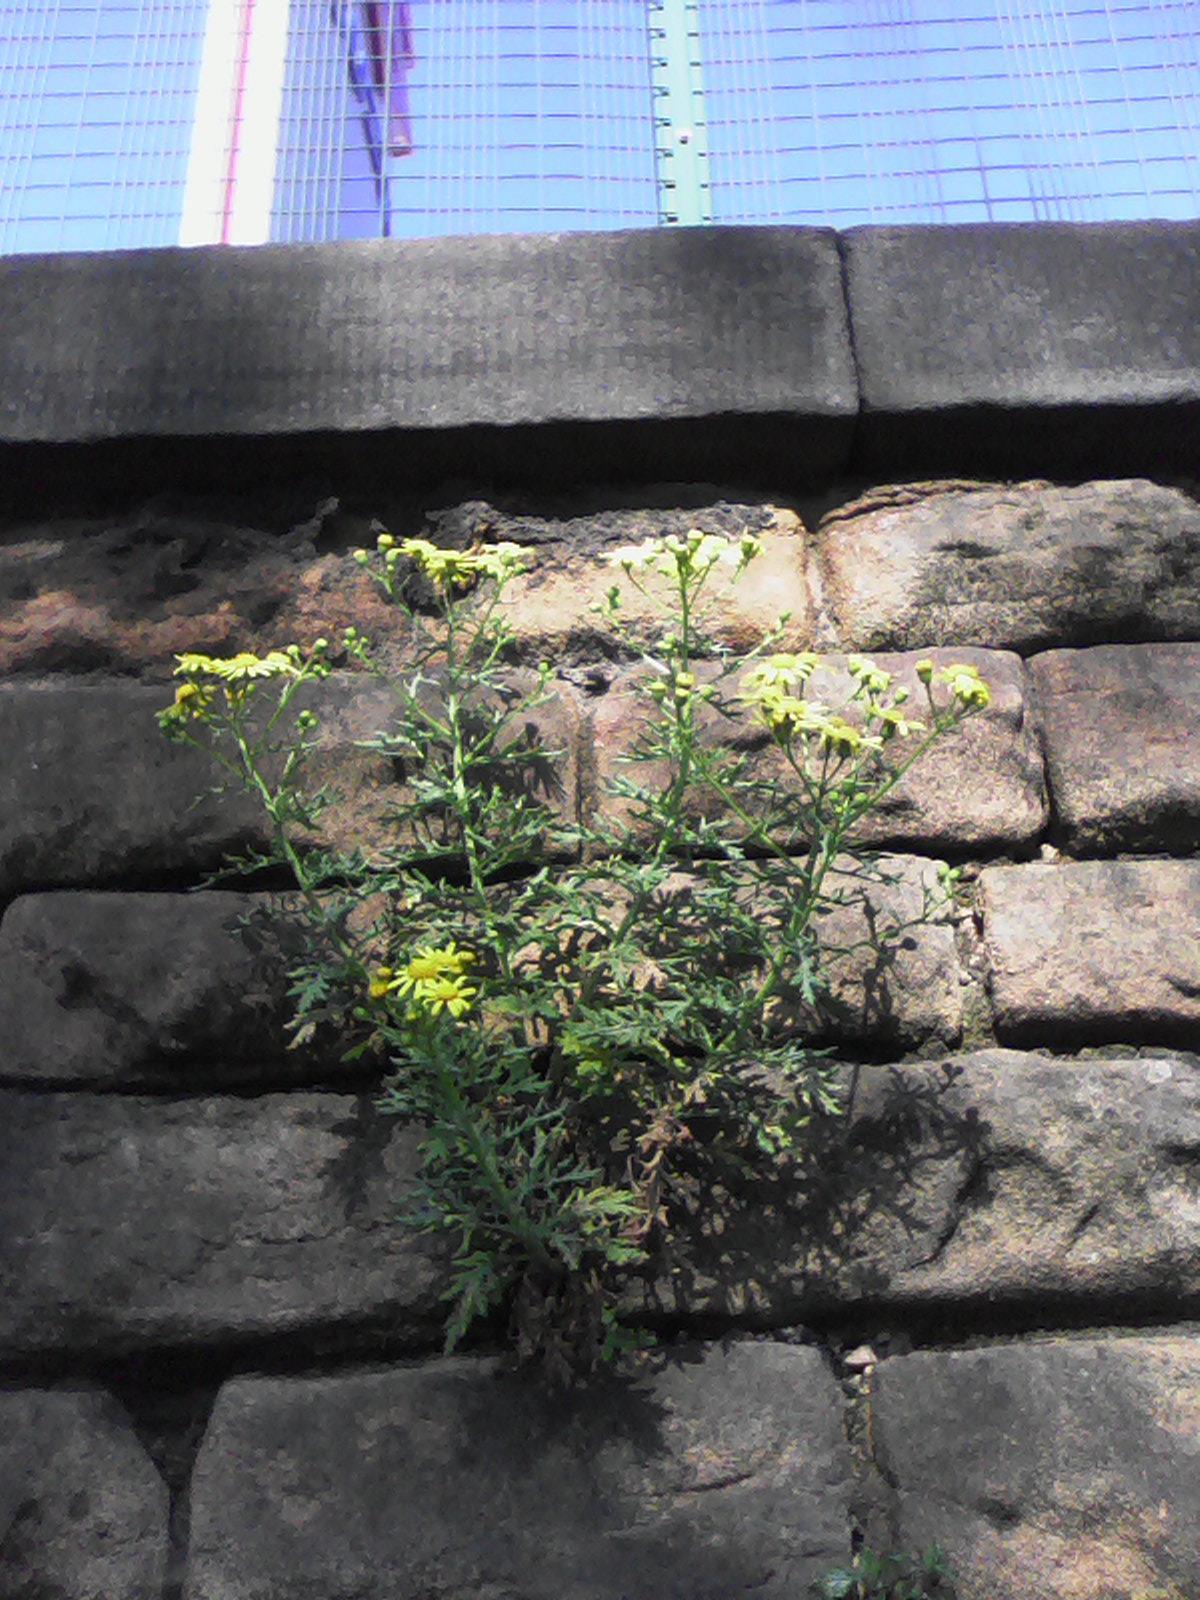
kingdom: Plantae
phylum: Tracheophyta
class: Magnoliopsida
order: Asterales
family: Asteraceae
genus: Senecio
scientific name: Senecio squalidus
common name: Oxford ragwort
